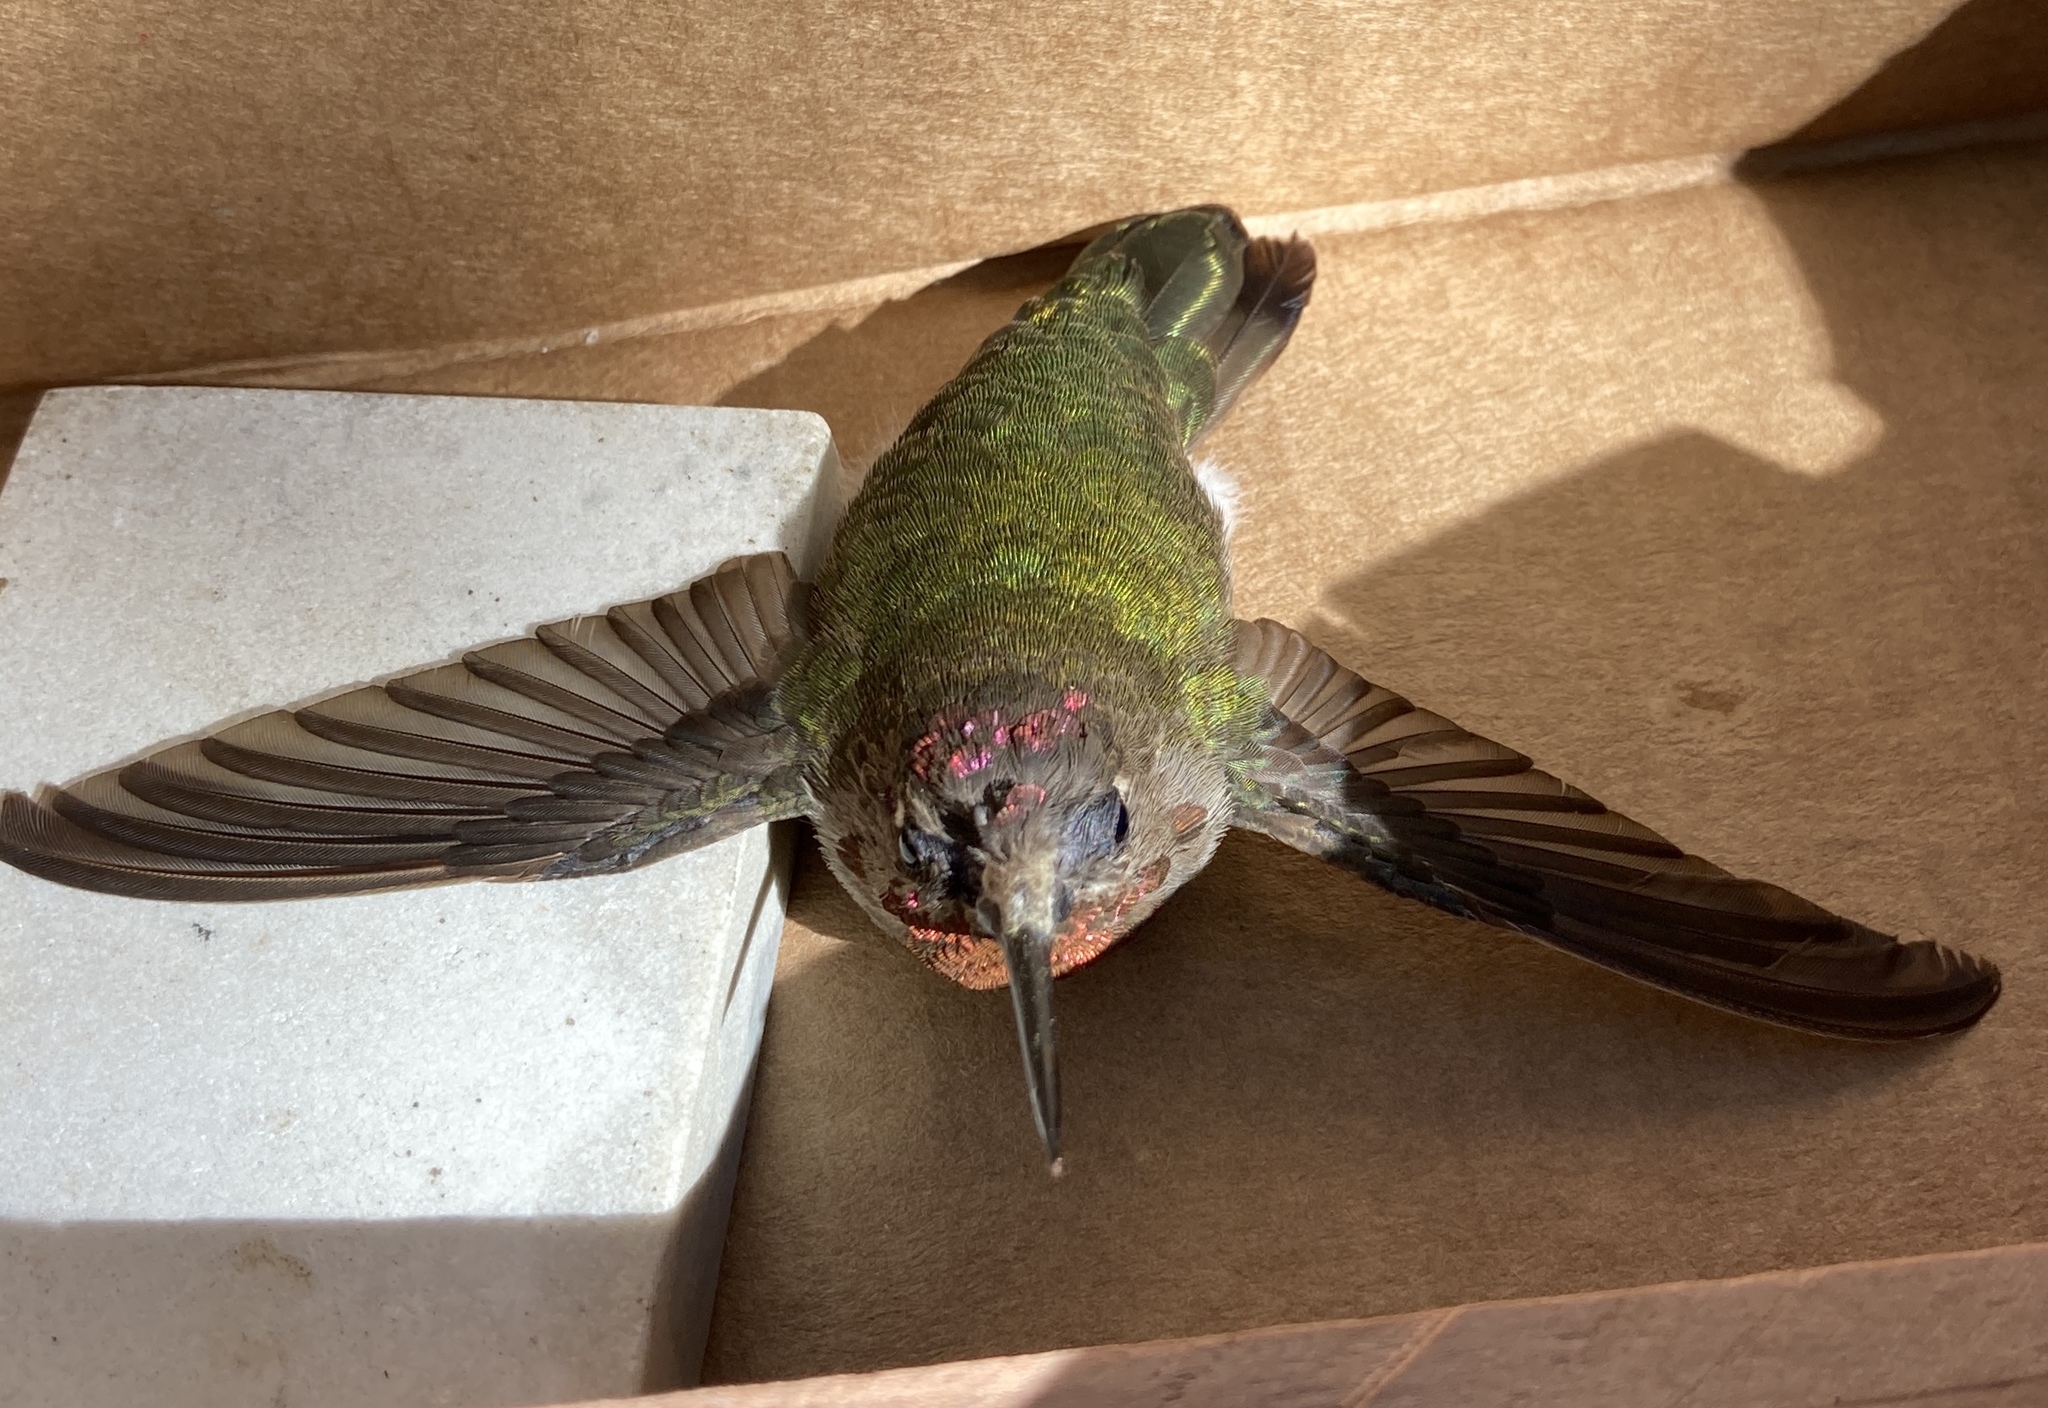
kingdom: Animalia
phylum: Chordata
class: Aves
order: Apodiformes
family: Trochilidae
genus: Calypte
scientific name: Calypte anna
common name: Anna's hummingbird
